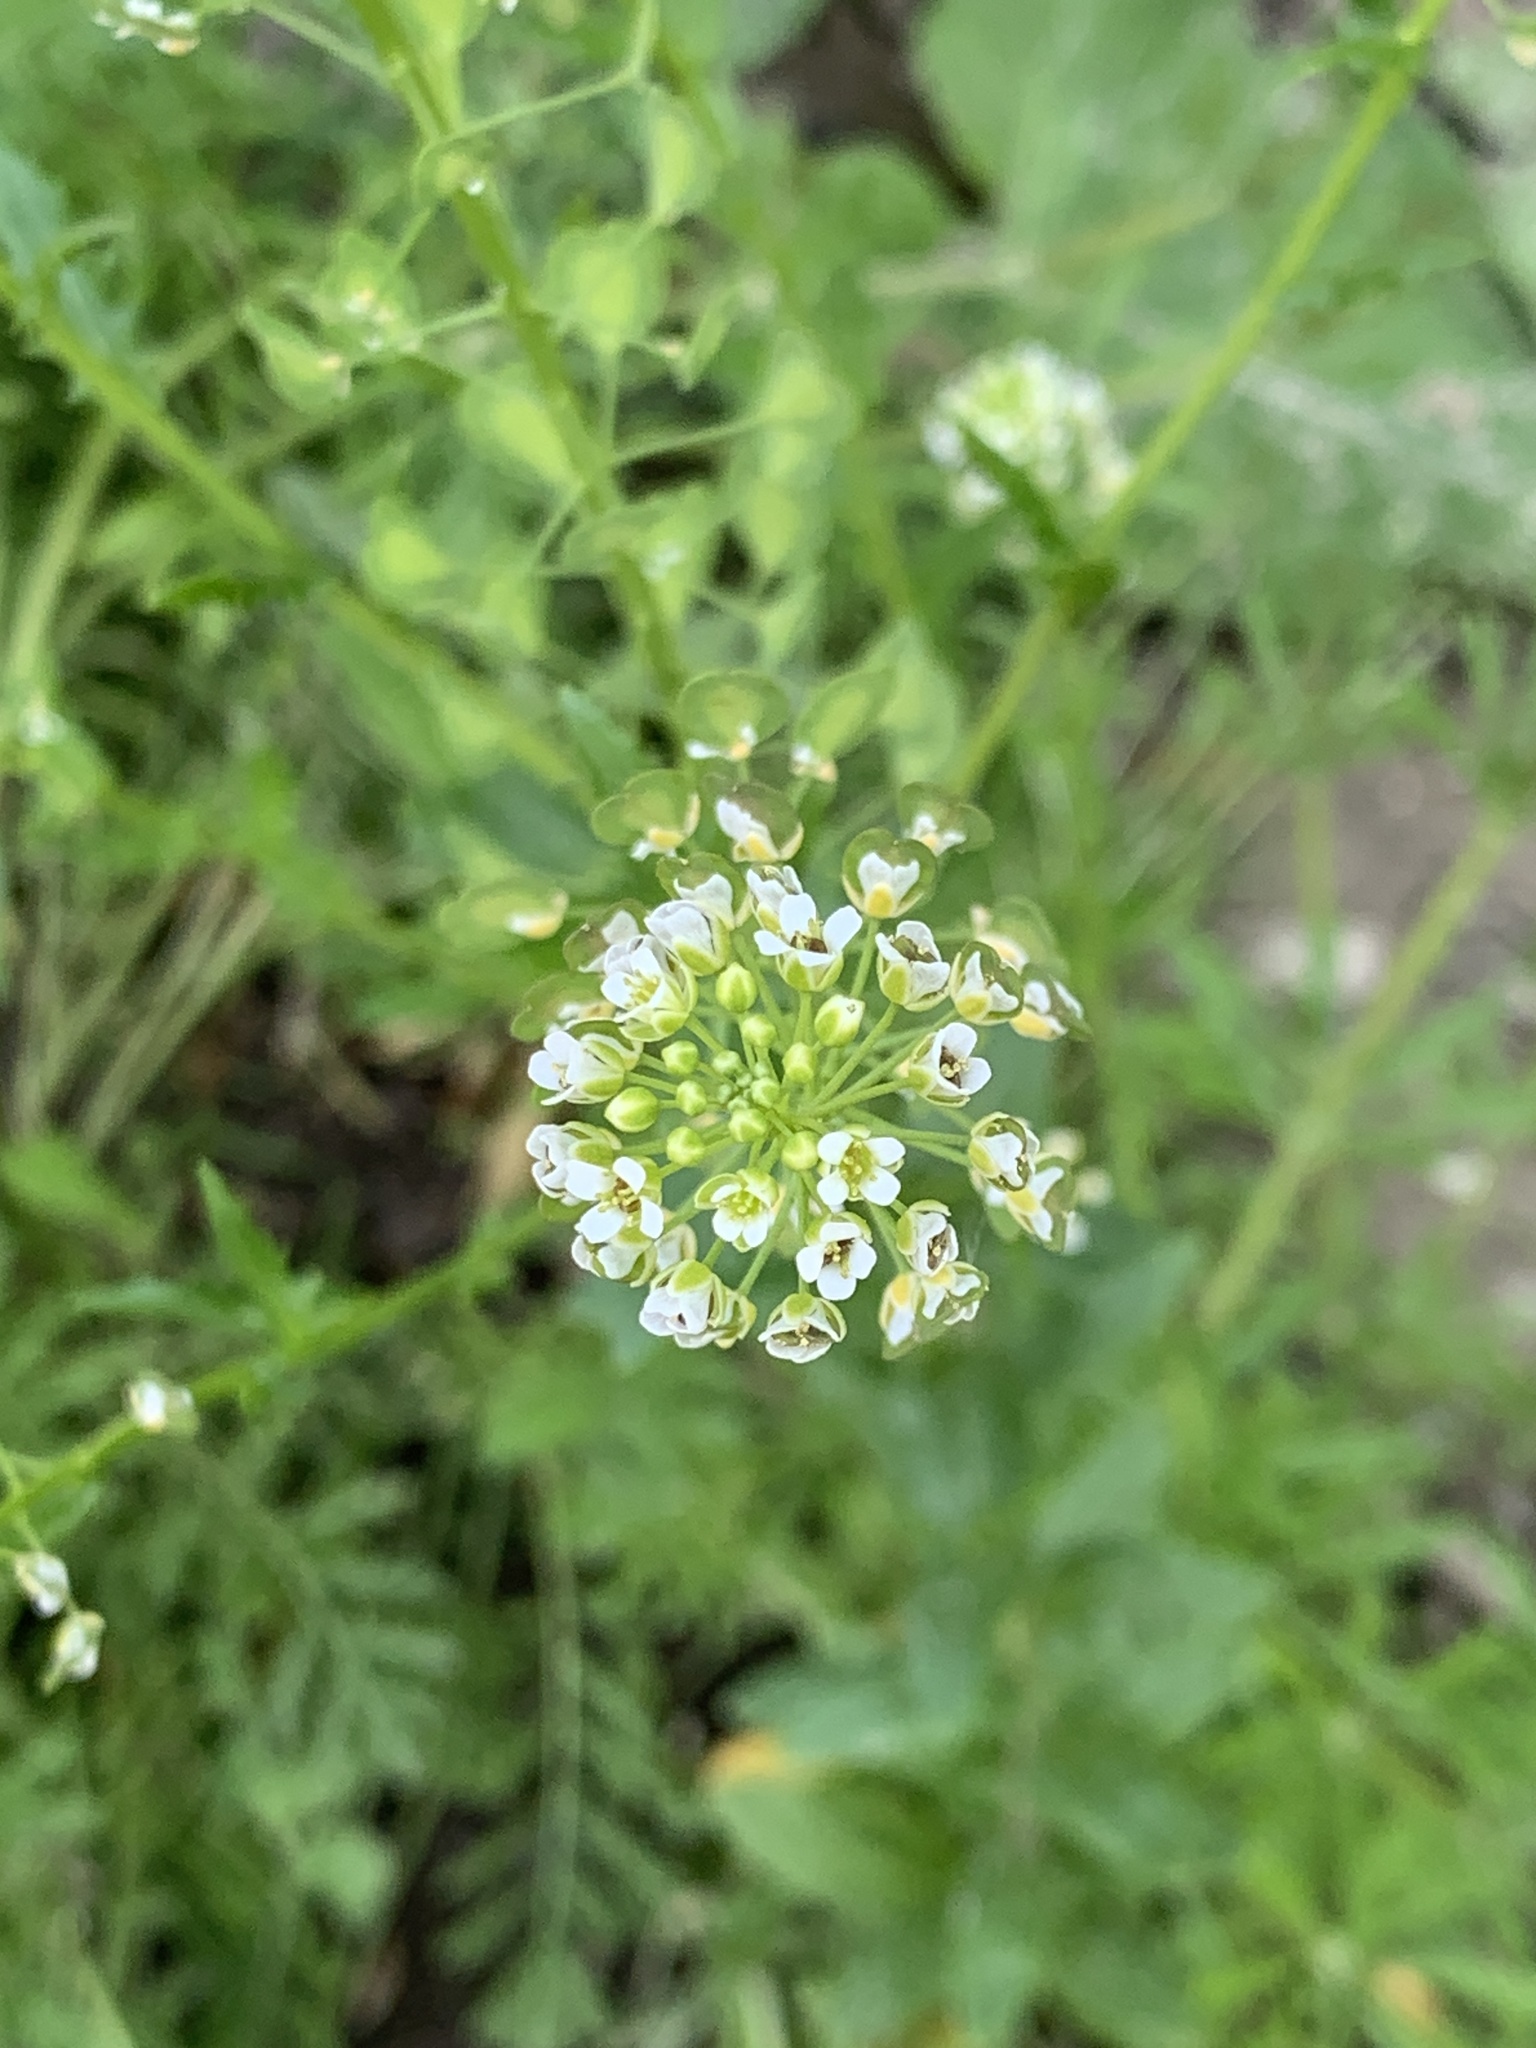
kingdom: Plantae
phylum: Tracheophyta
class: Magnoliopsida
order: Brassicales
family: Brassicaceae
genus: Thlaspi
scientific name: Thlaspi arvense
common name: Field pennycress
